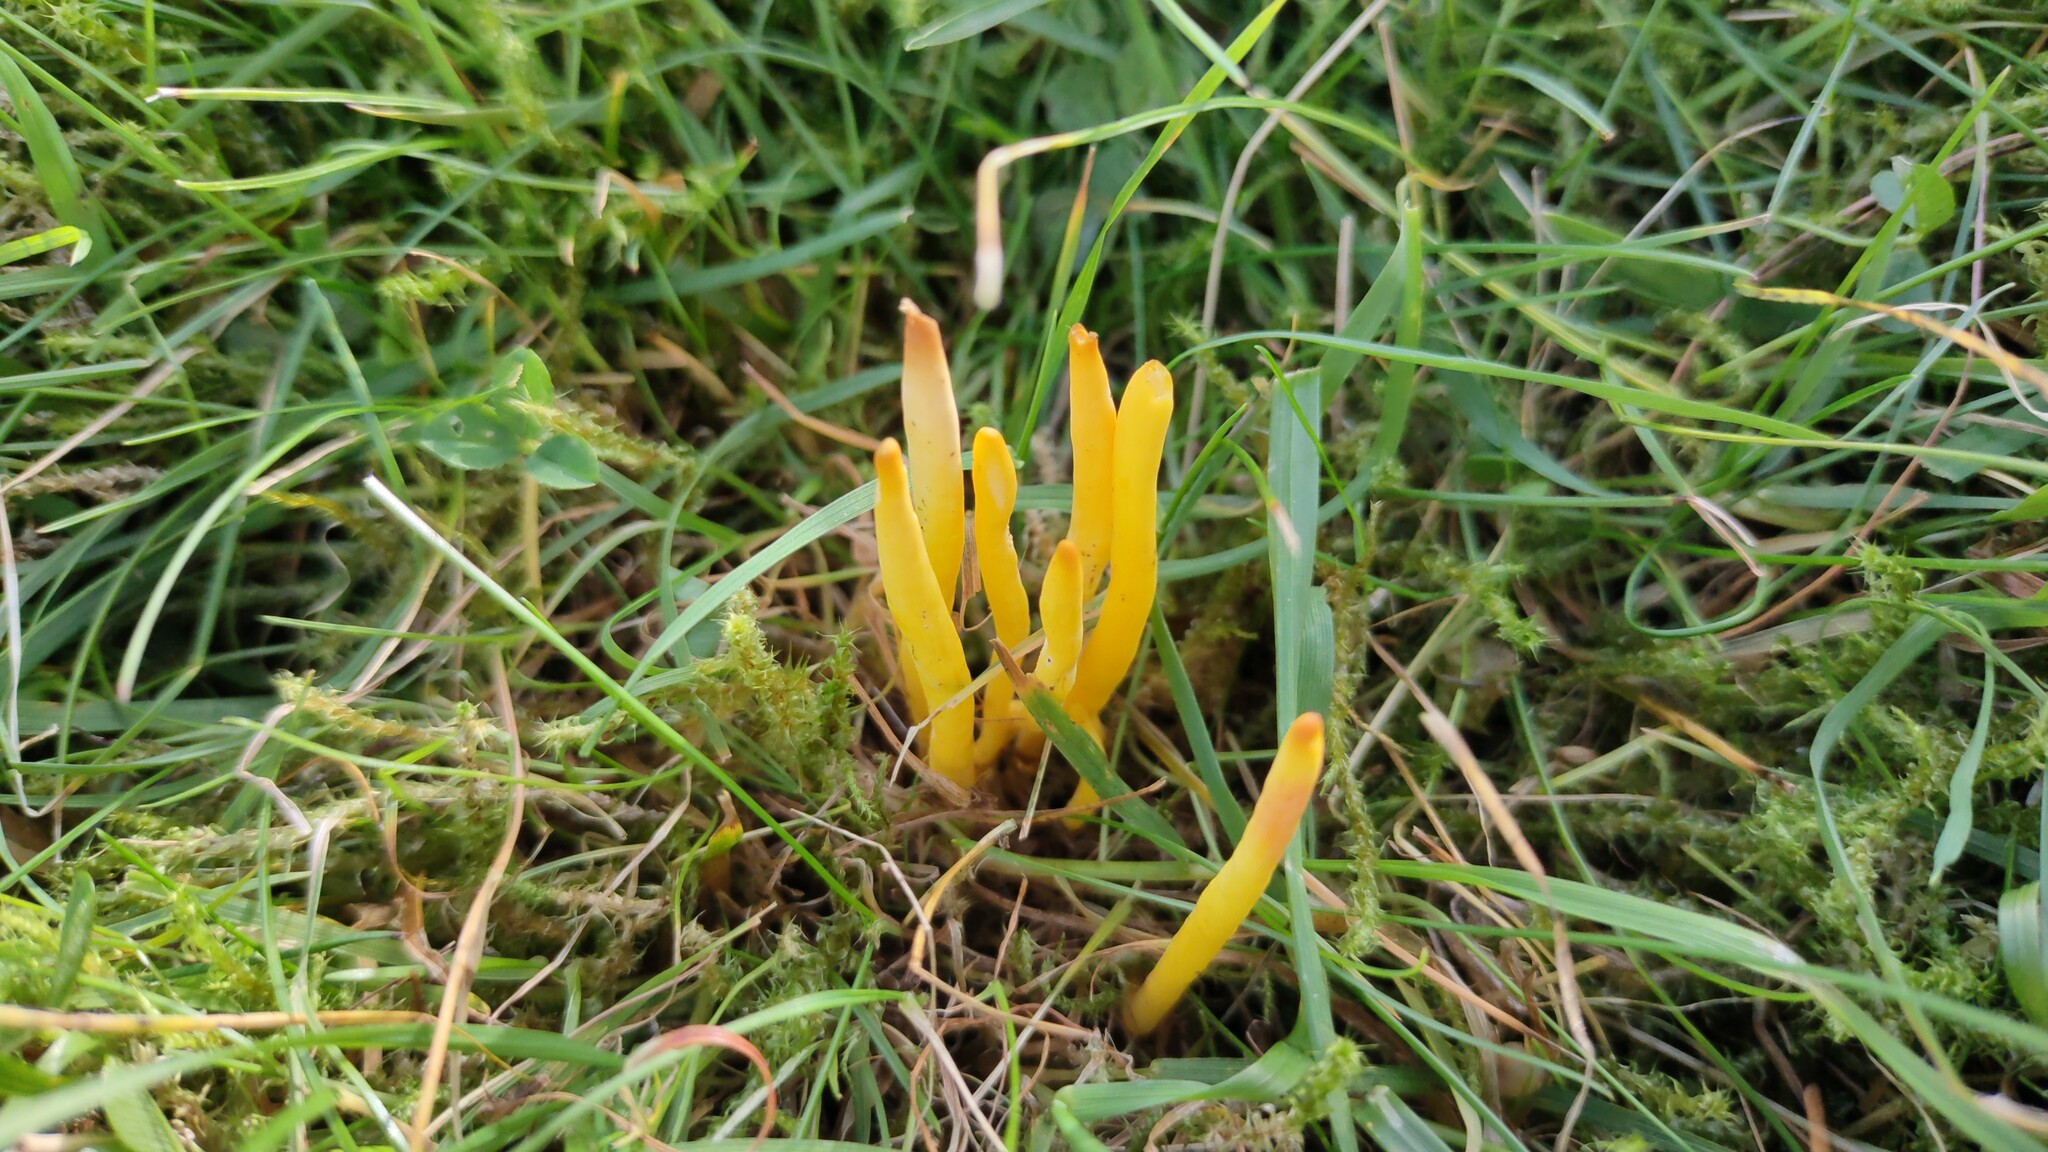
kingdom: Fungi
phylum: Basidiomycota
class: Agaricomycetes
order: Agaricales
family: Clavariaceae
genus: Clavulinopsis
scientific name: Clavulinopsis helvola
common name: Yellow club
